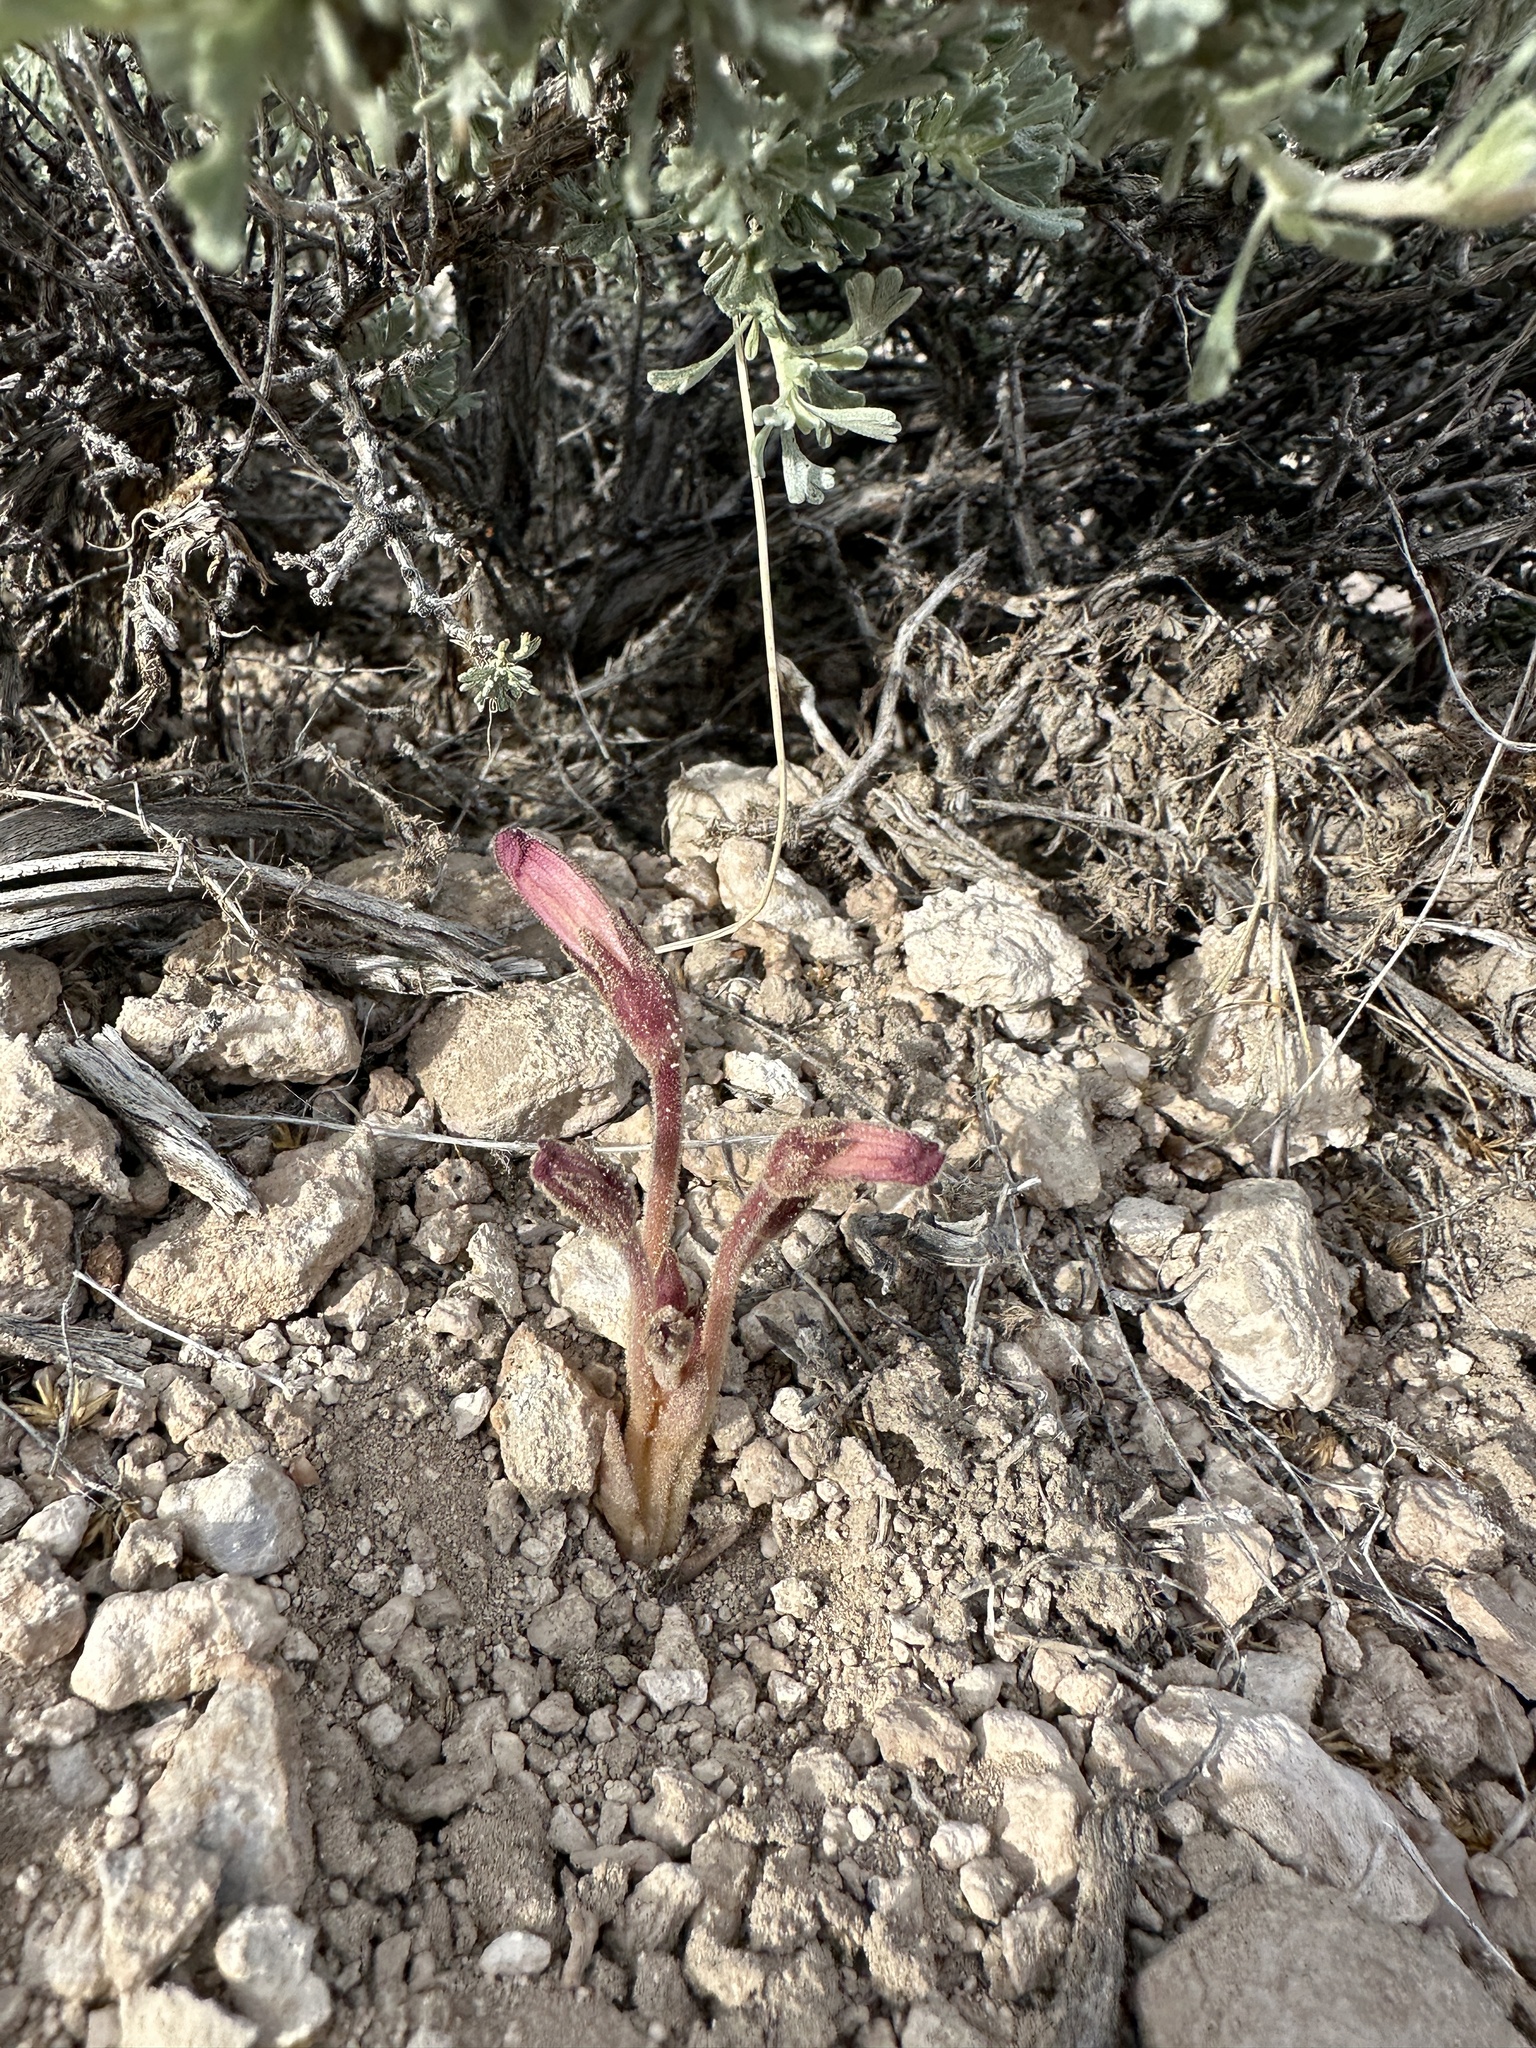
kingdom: Plantae
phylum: Tracheophyta
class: Magnoliopsida
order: Lamiales
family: Orobanchaceae
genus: Aphyllon
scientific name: Aphyllon fasciculatum
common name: Clustered broomrape
